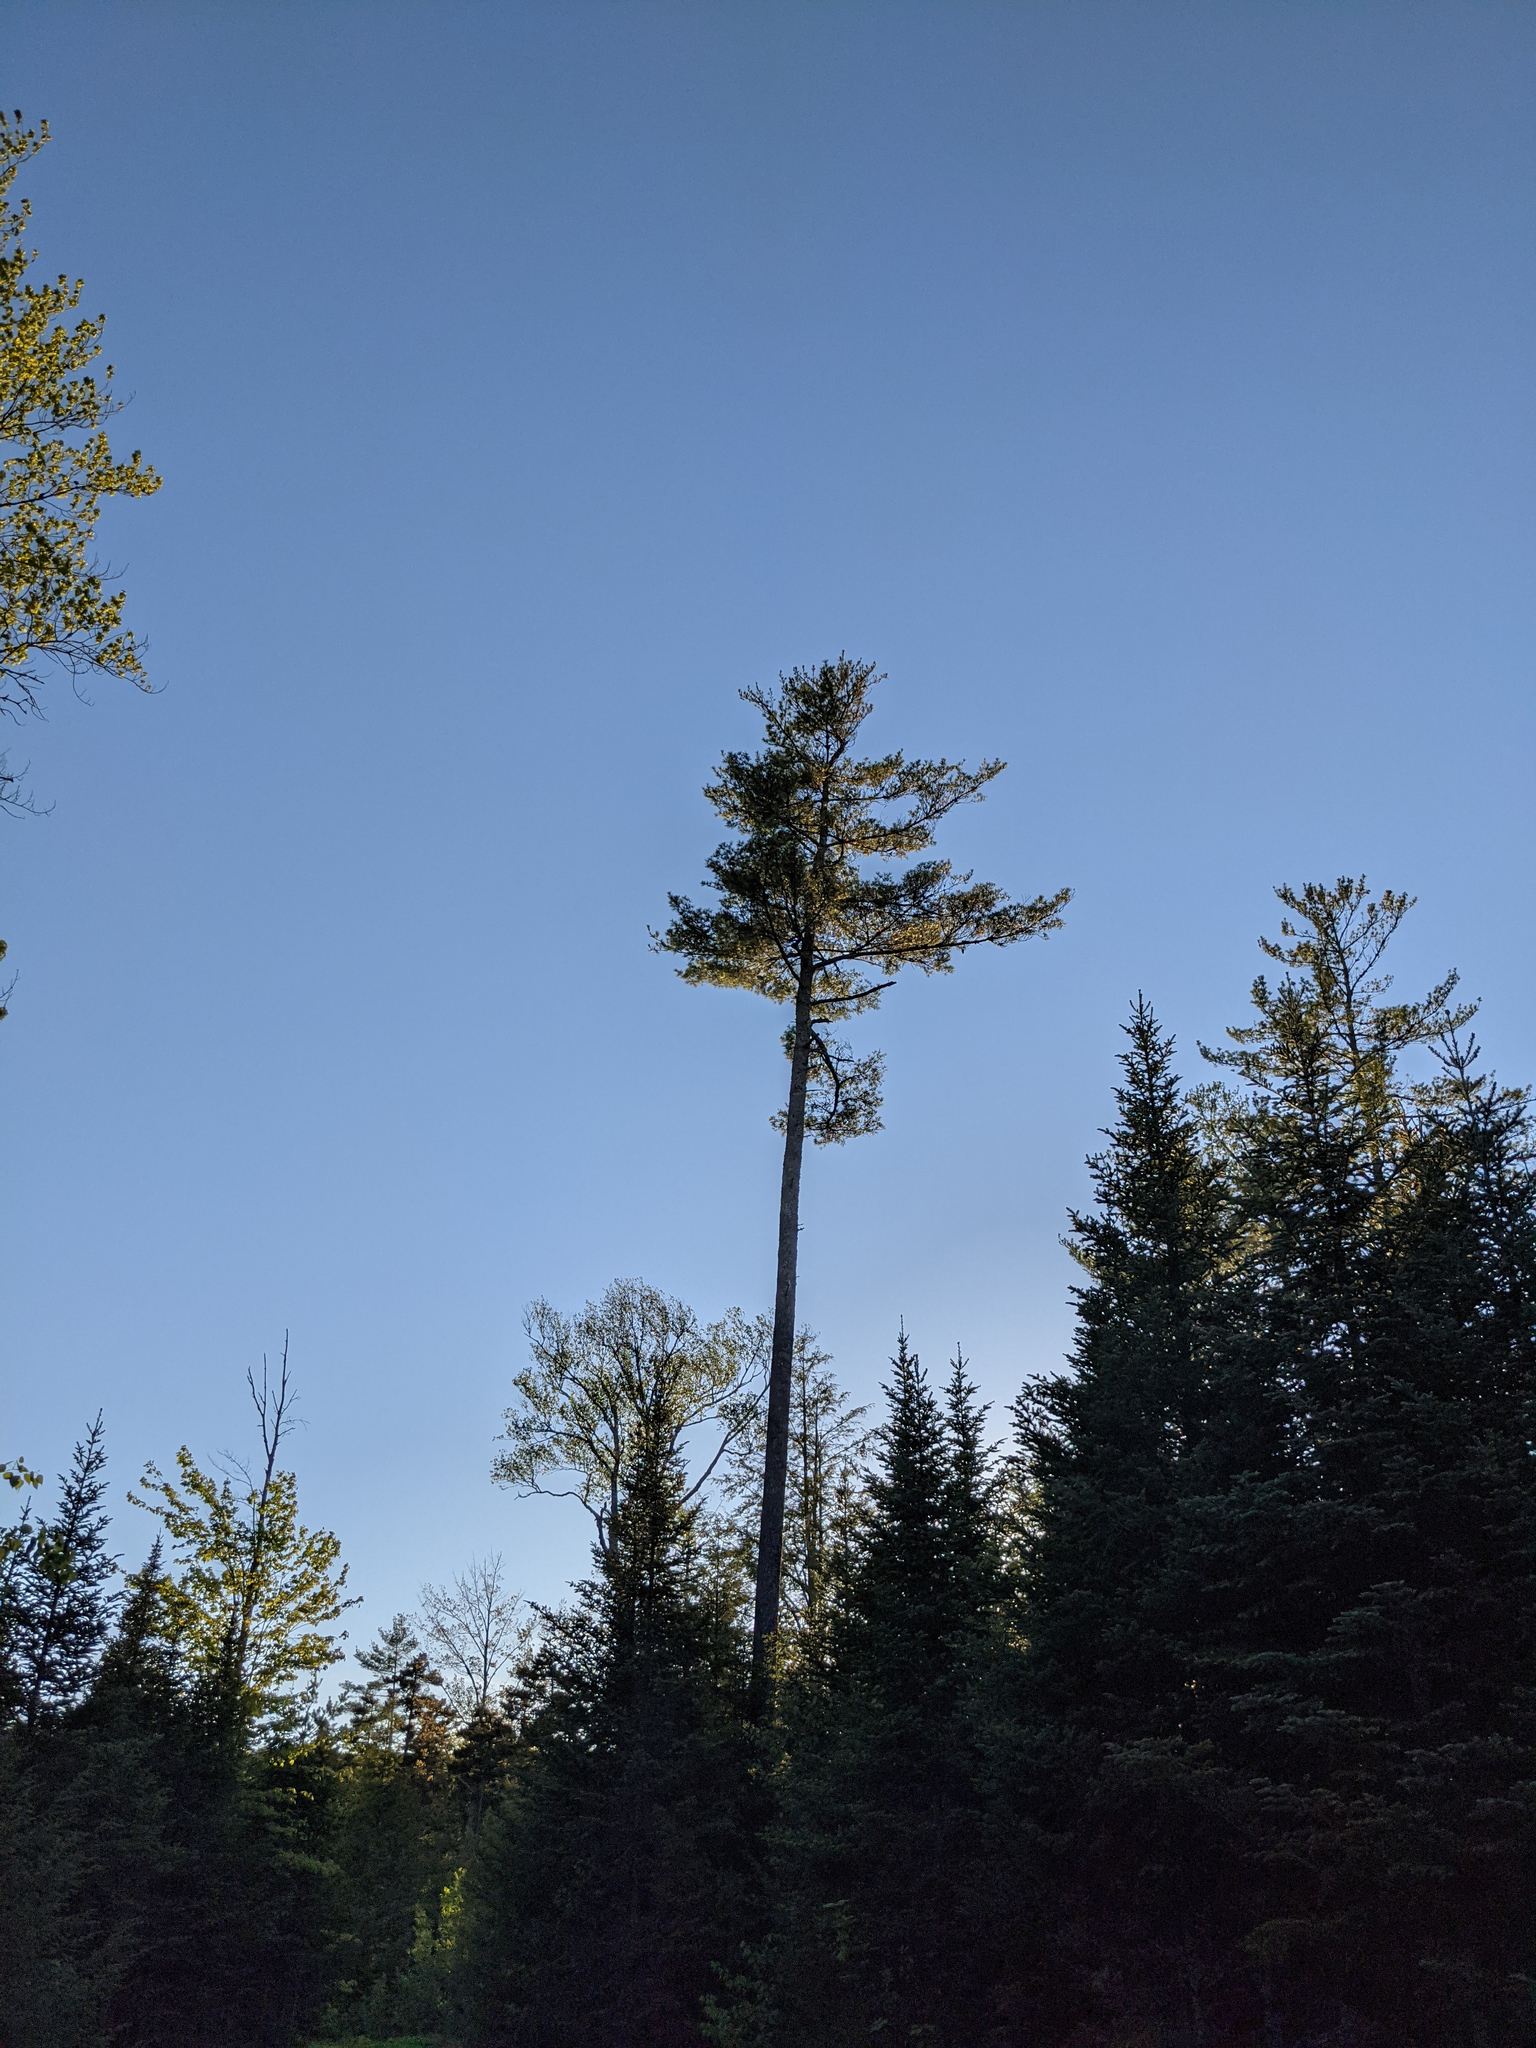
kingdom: Plantae
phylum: Tracheophyta
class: Pinopsida
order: Pinales
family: Pinaceae
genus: Pinus
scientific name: Pinus strobus
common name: Weymouth pine
